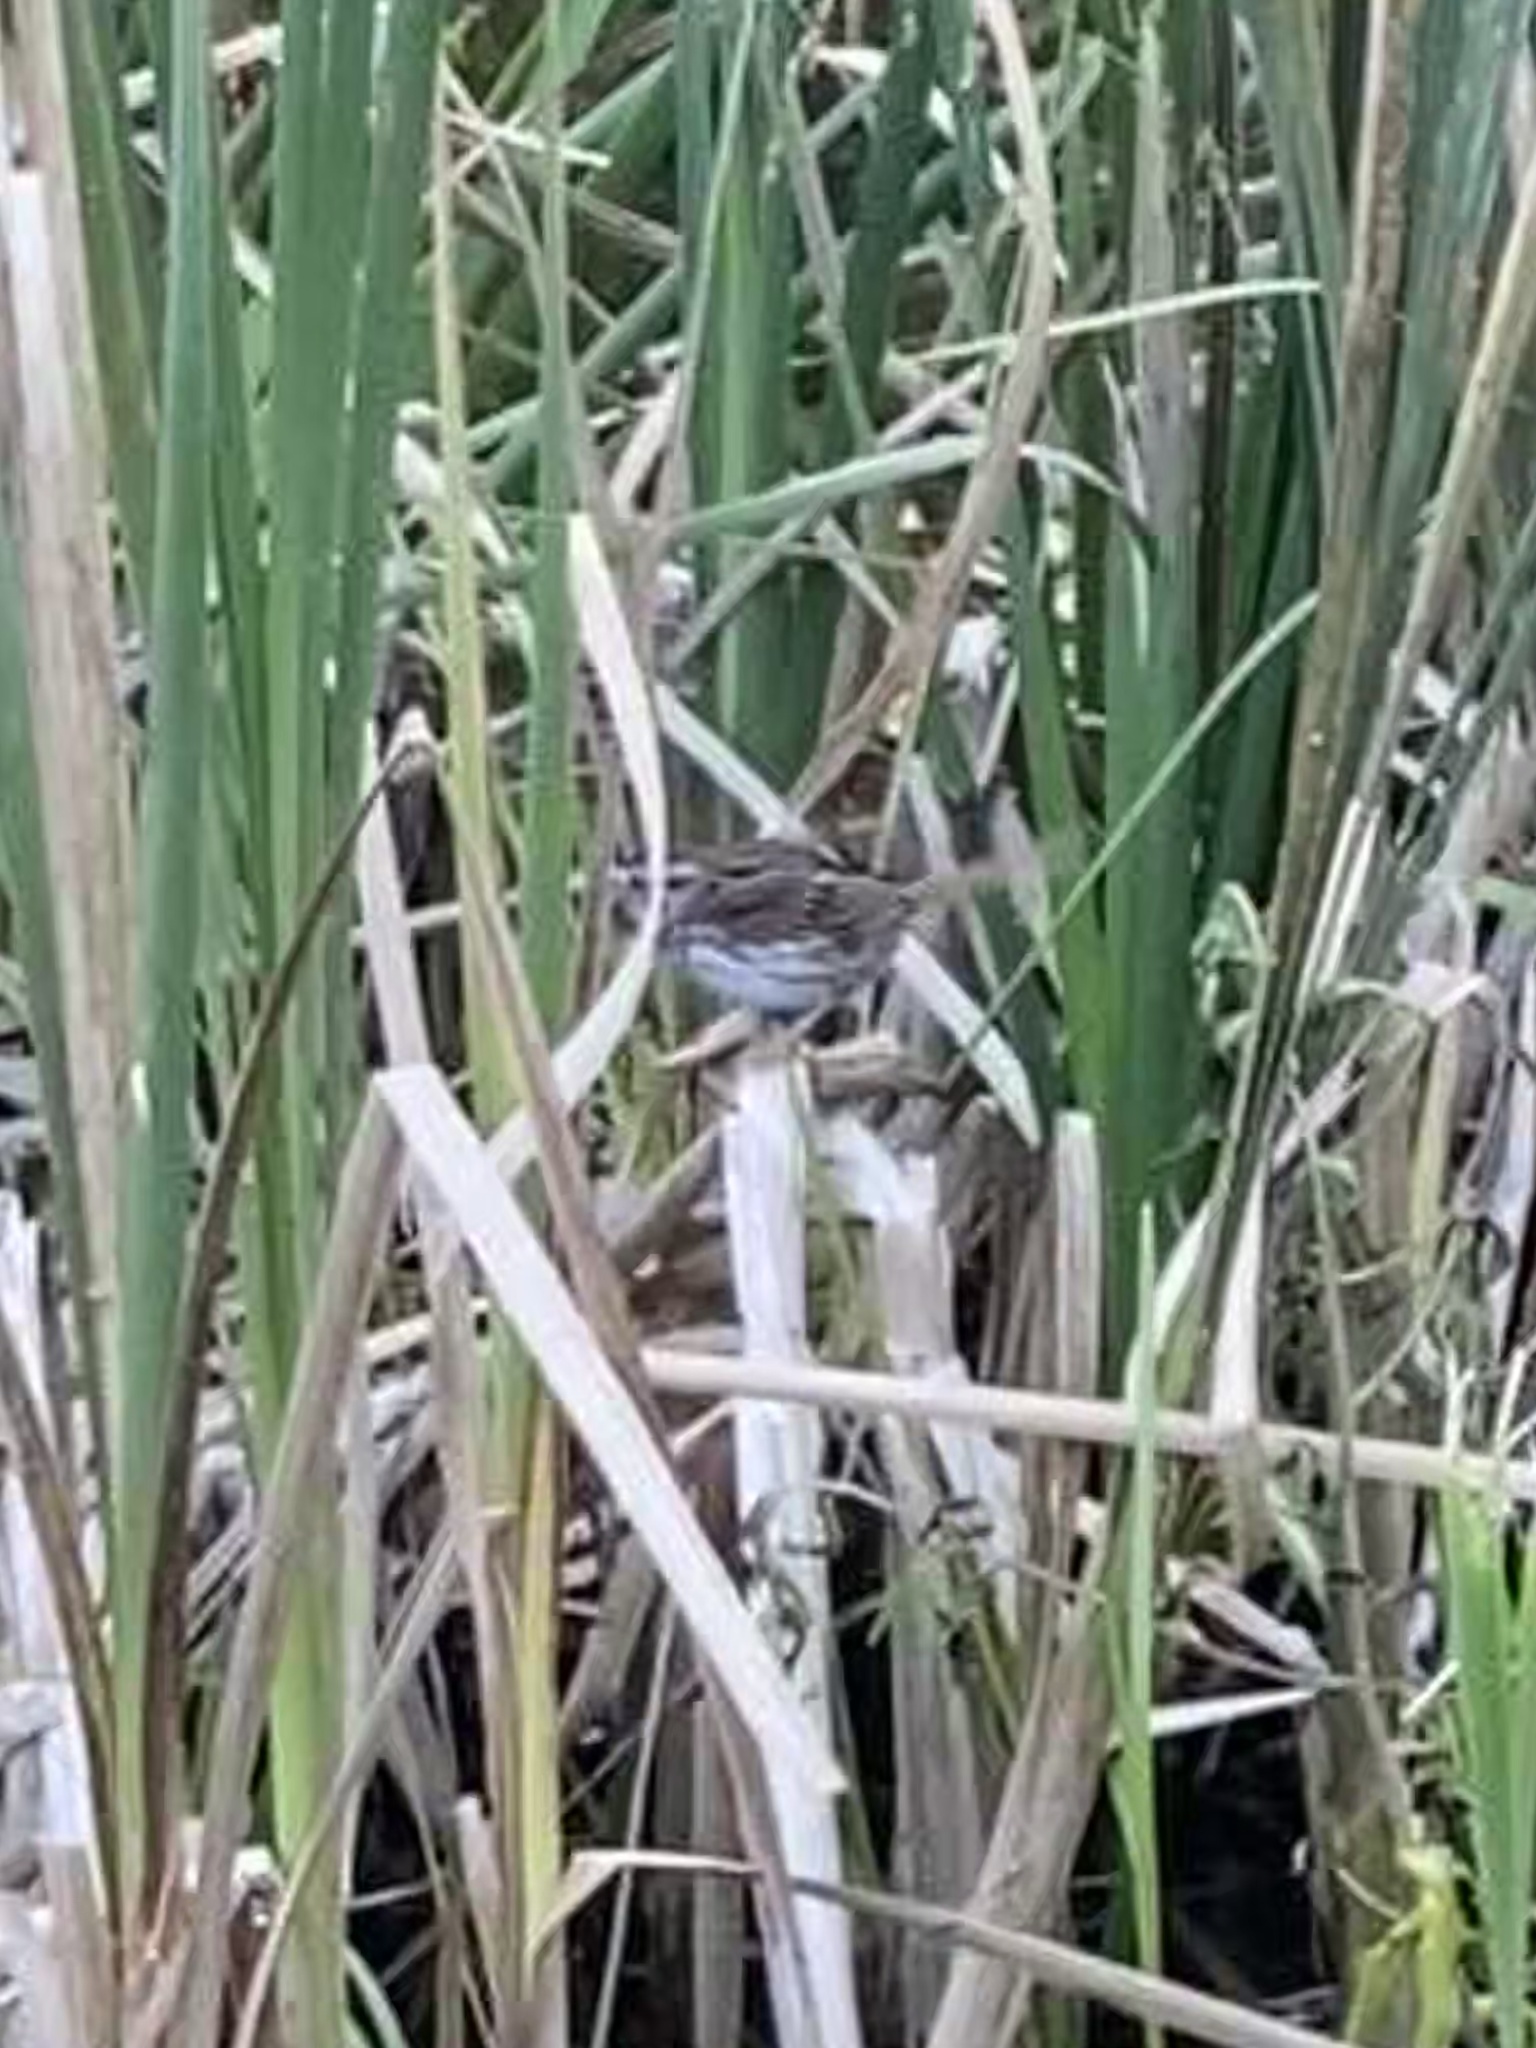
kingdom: Animalia
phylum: Chordata
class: Aves
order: Passeriformes
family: Passerellidae
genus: Melospiza
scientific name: Melospiza melodia
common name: Song sparrow
